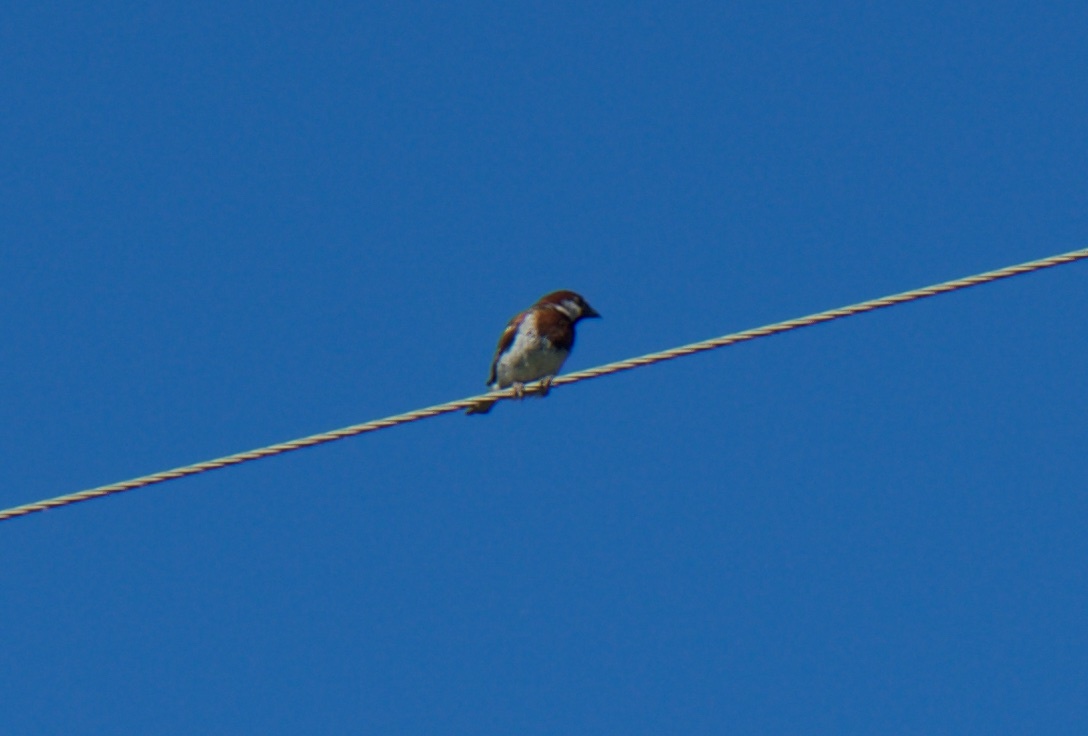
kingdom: Animalia
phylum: Chordata
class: Aves
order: Passeriformes
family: Passeridae
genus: Passer
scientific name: Passer domesticus
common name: House sparrow
